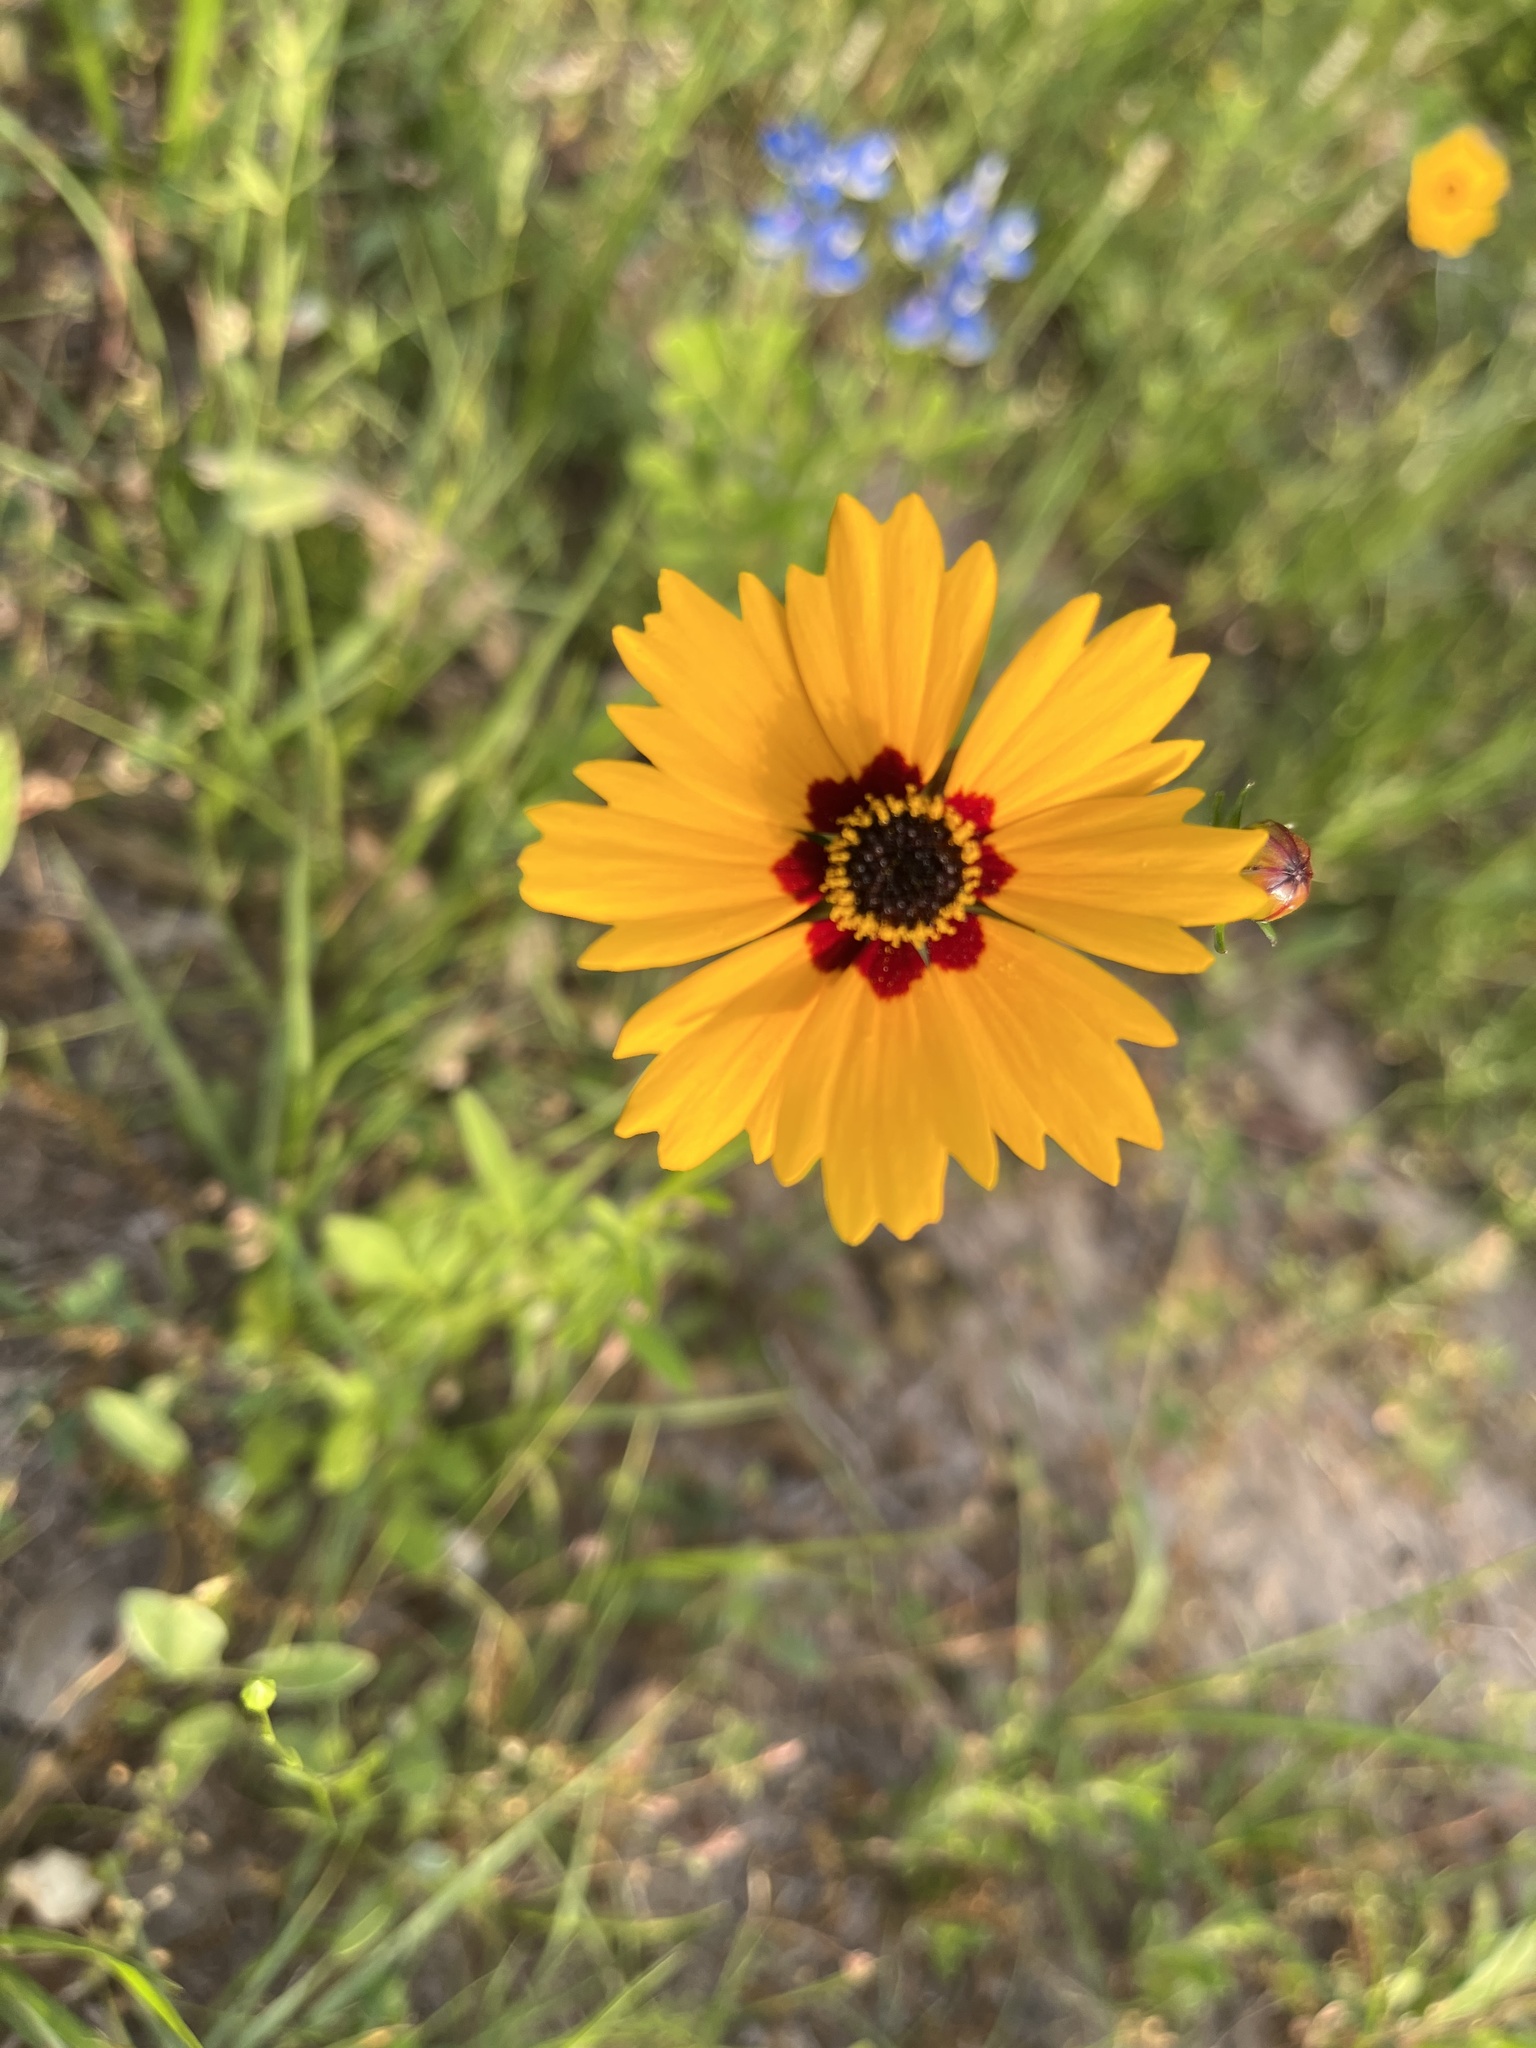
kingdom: Plantae
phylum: Tracheophyta
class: Magnoliopsida
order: Asterales
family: Asteraceae
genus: Coreopsis
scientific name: Coreopsis basalis
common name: Golden-mane coreopsis
